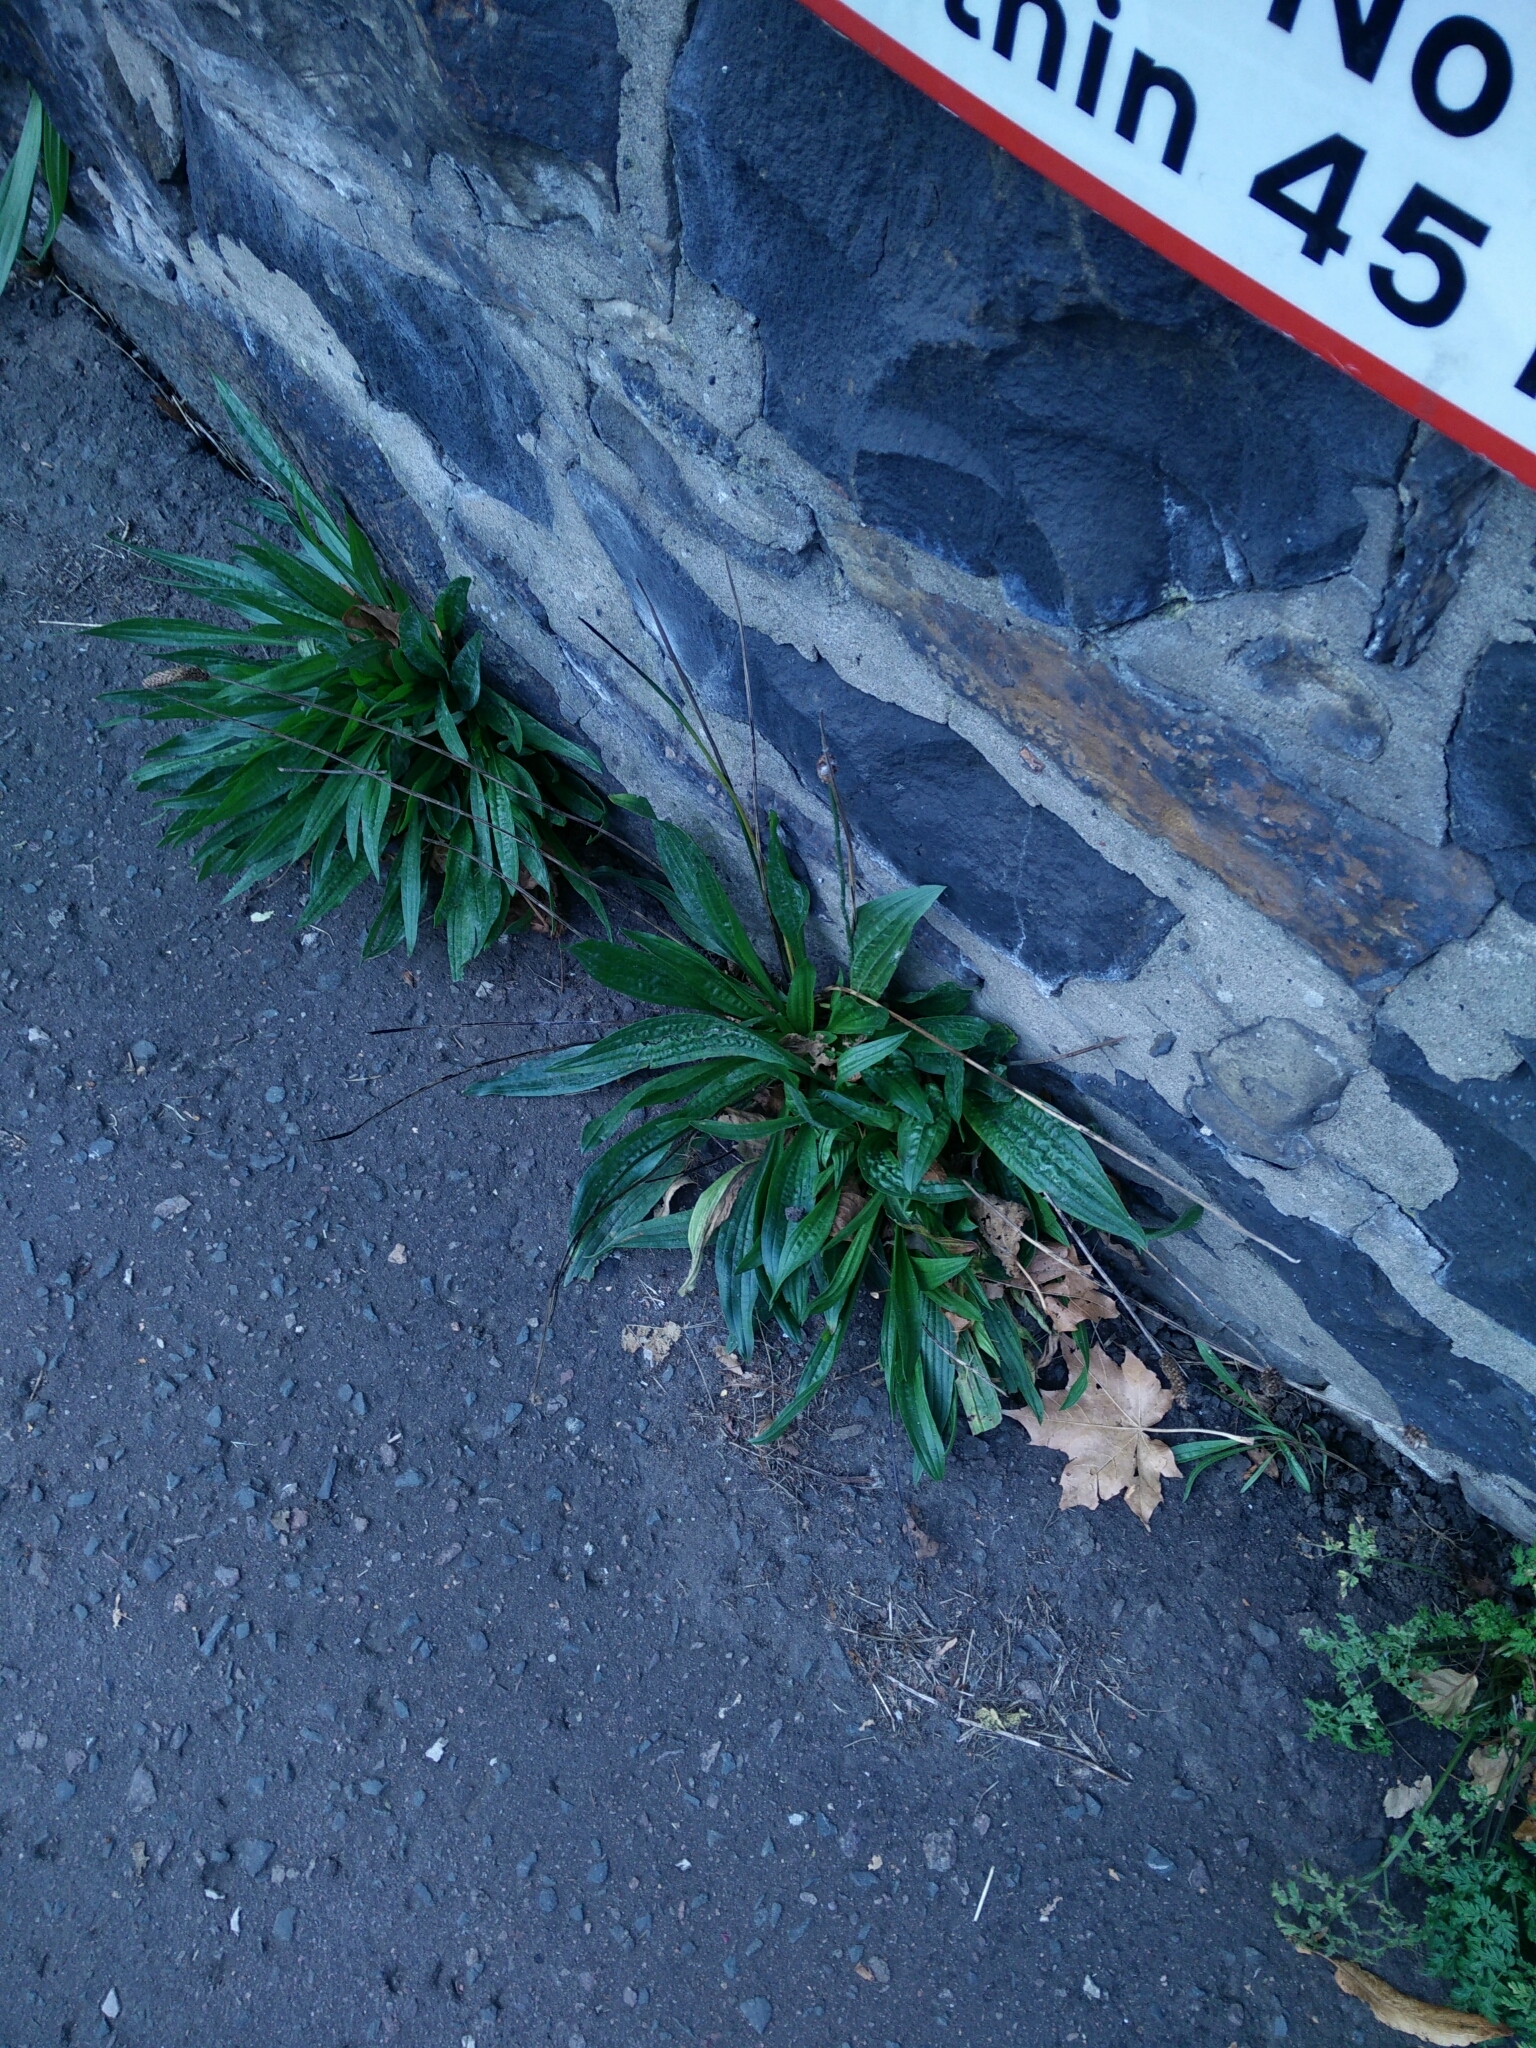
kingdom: Plantae
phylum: Tracheophyta
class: Magnoliopsida
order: Lamiales
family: Plantaginaceae
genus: Plantago
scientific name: Plantago lanceolata
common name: Ribwort plantain
